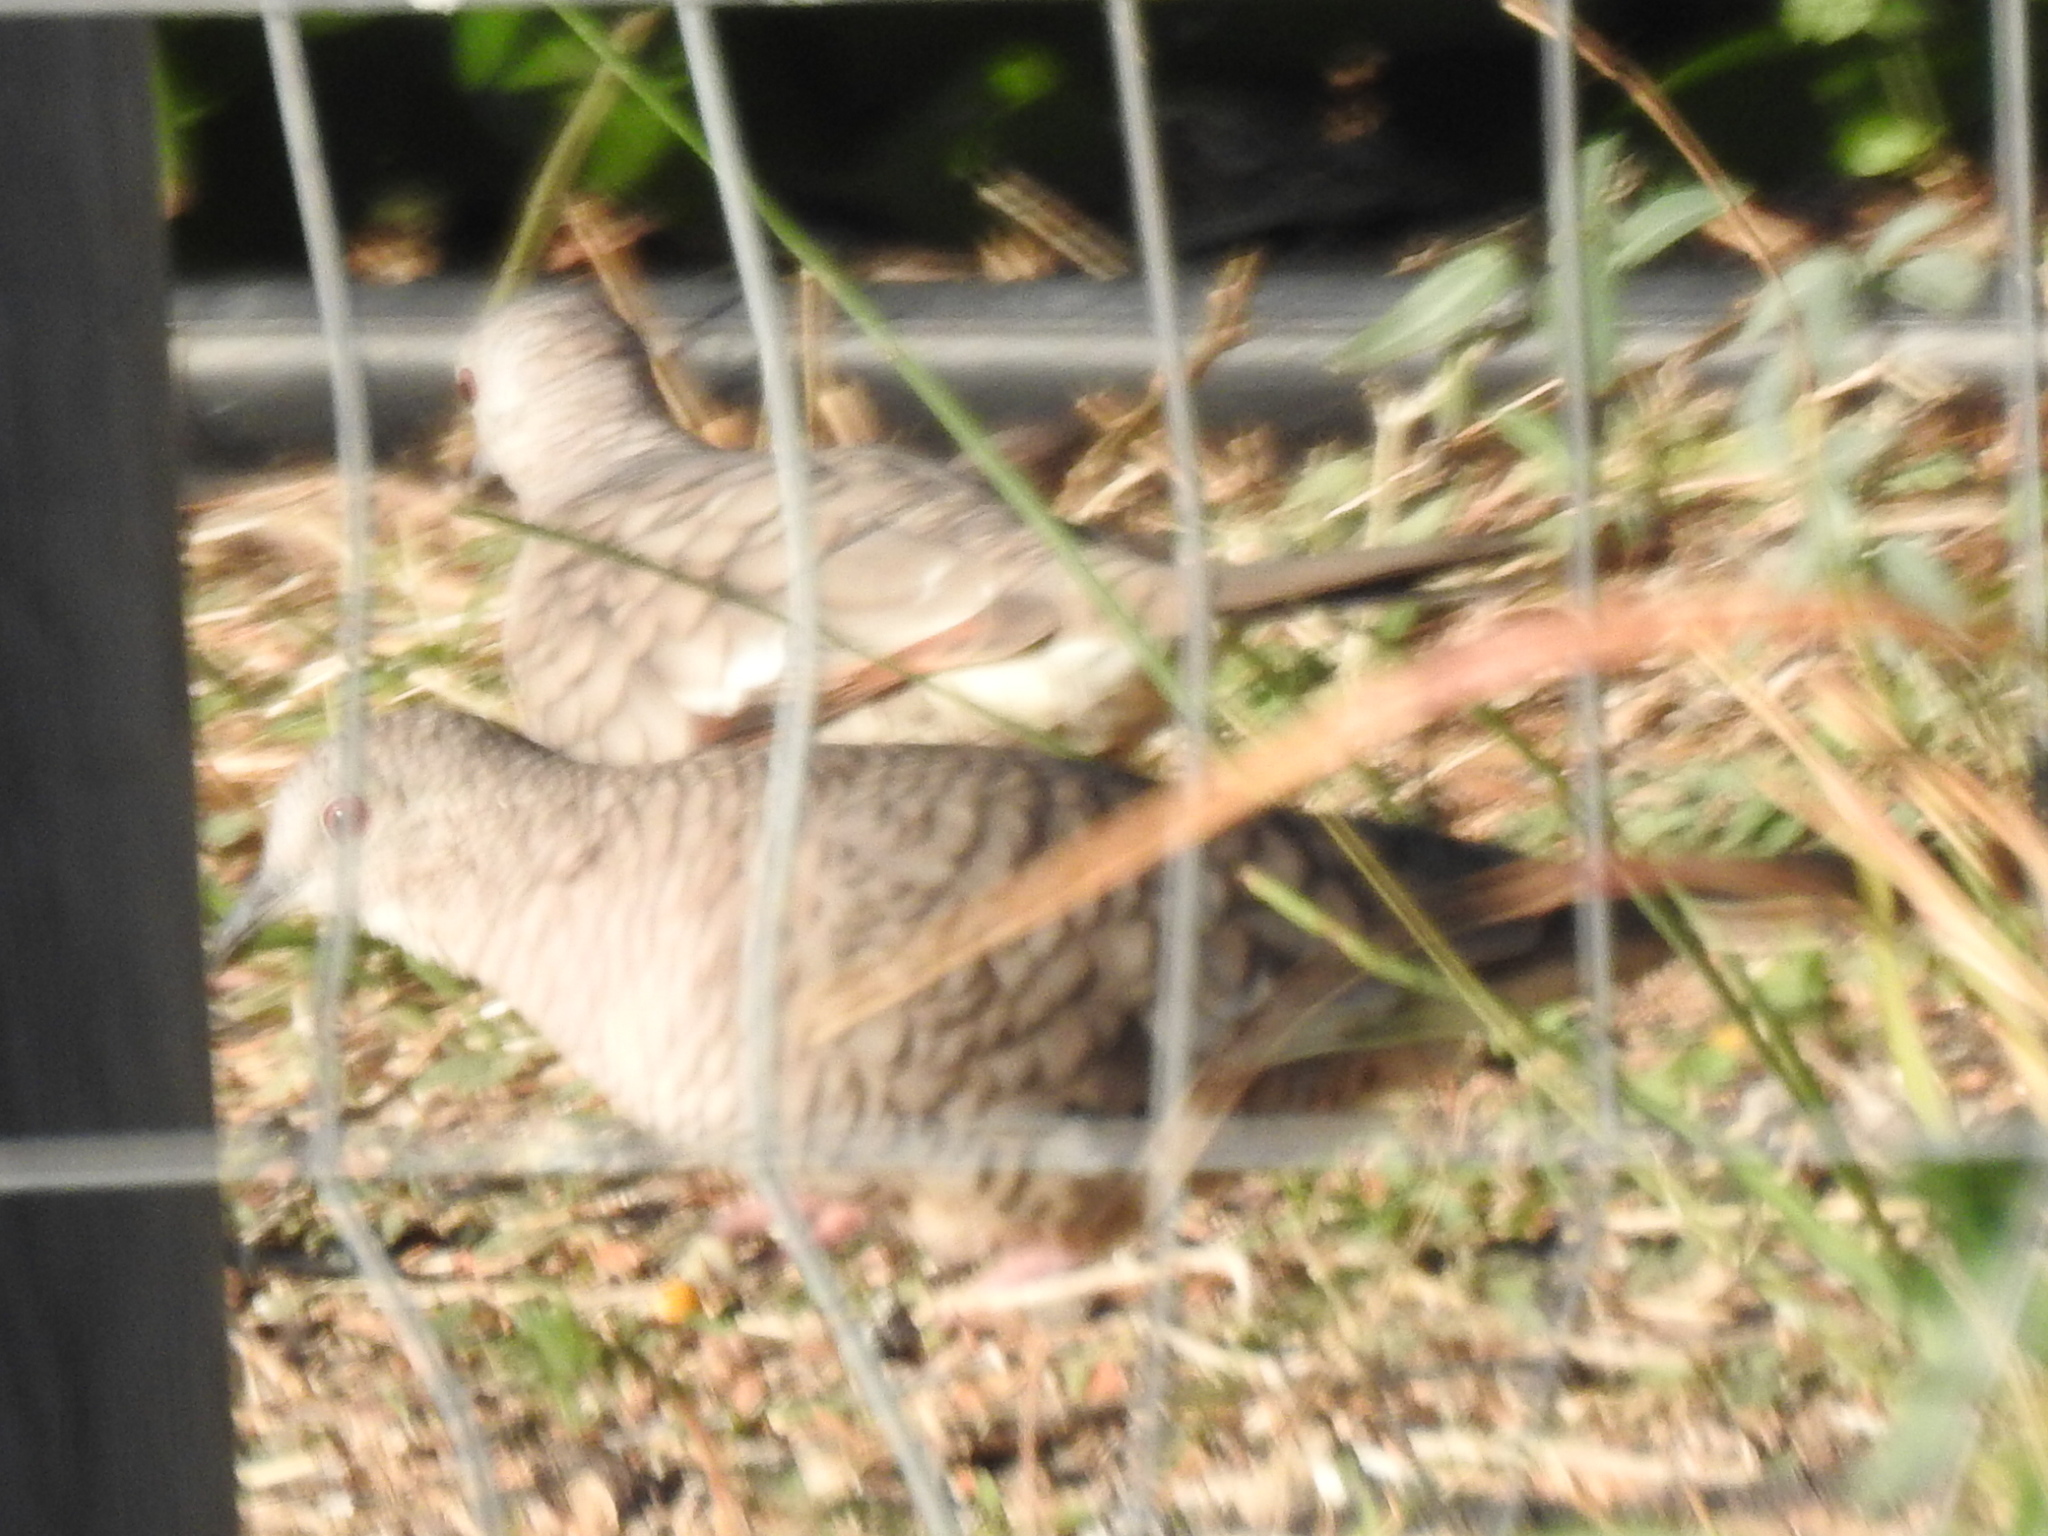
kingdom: Animalia
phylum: Chordata
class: Aves
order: Columbiformes
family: Columbidae
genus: Columbina
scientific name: Columbina inca
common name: Inca dove
